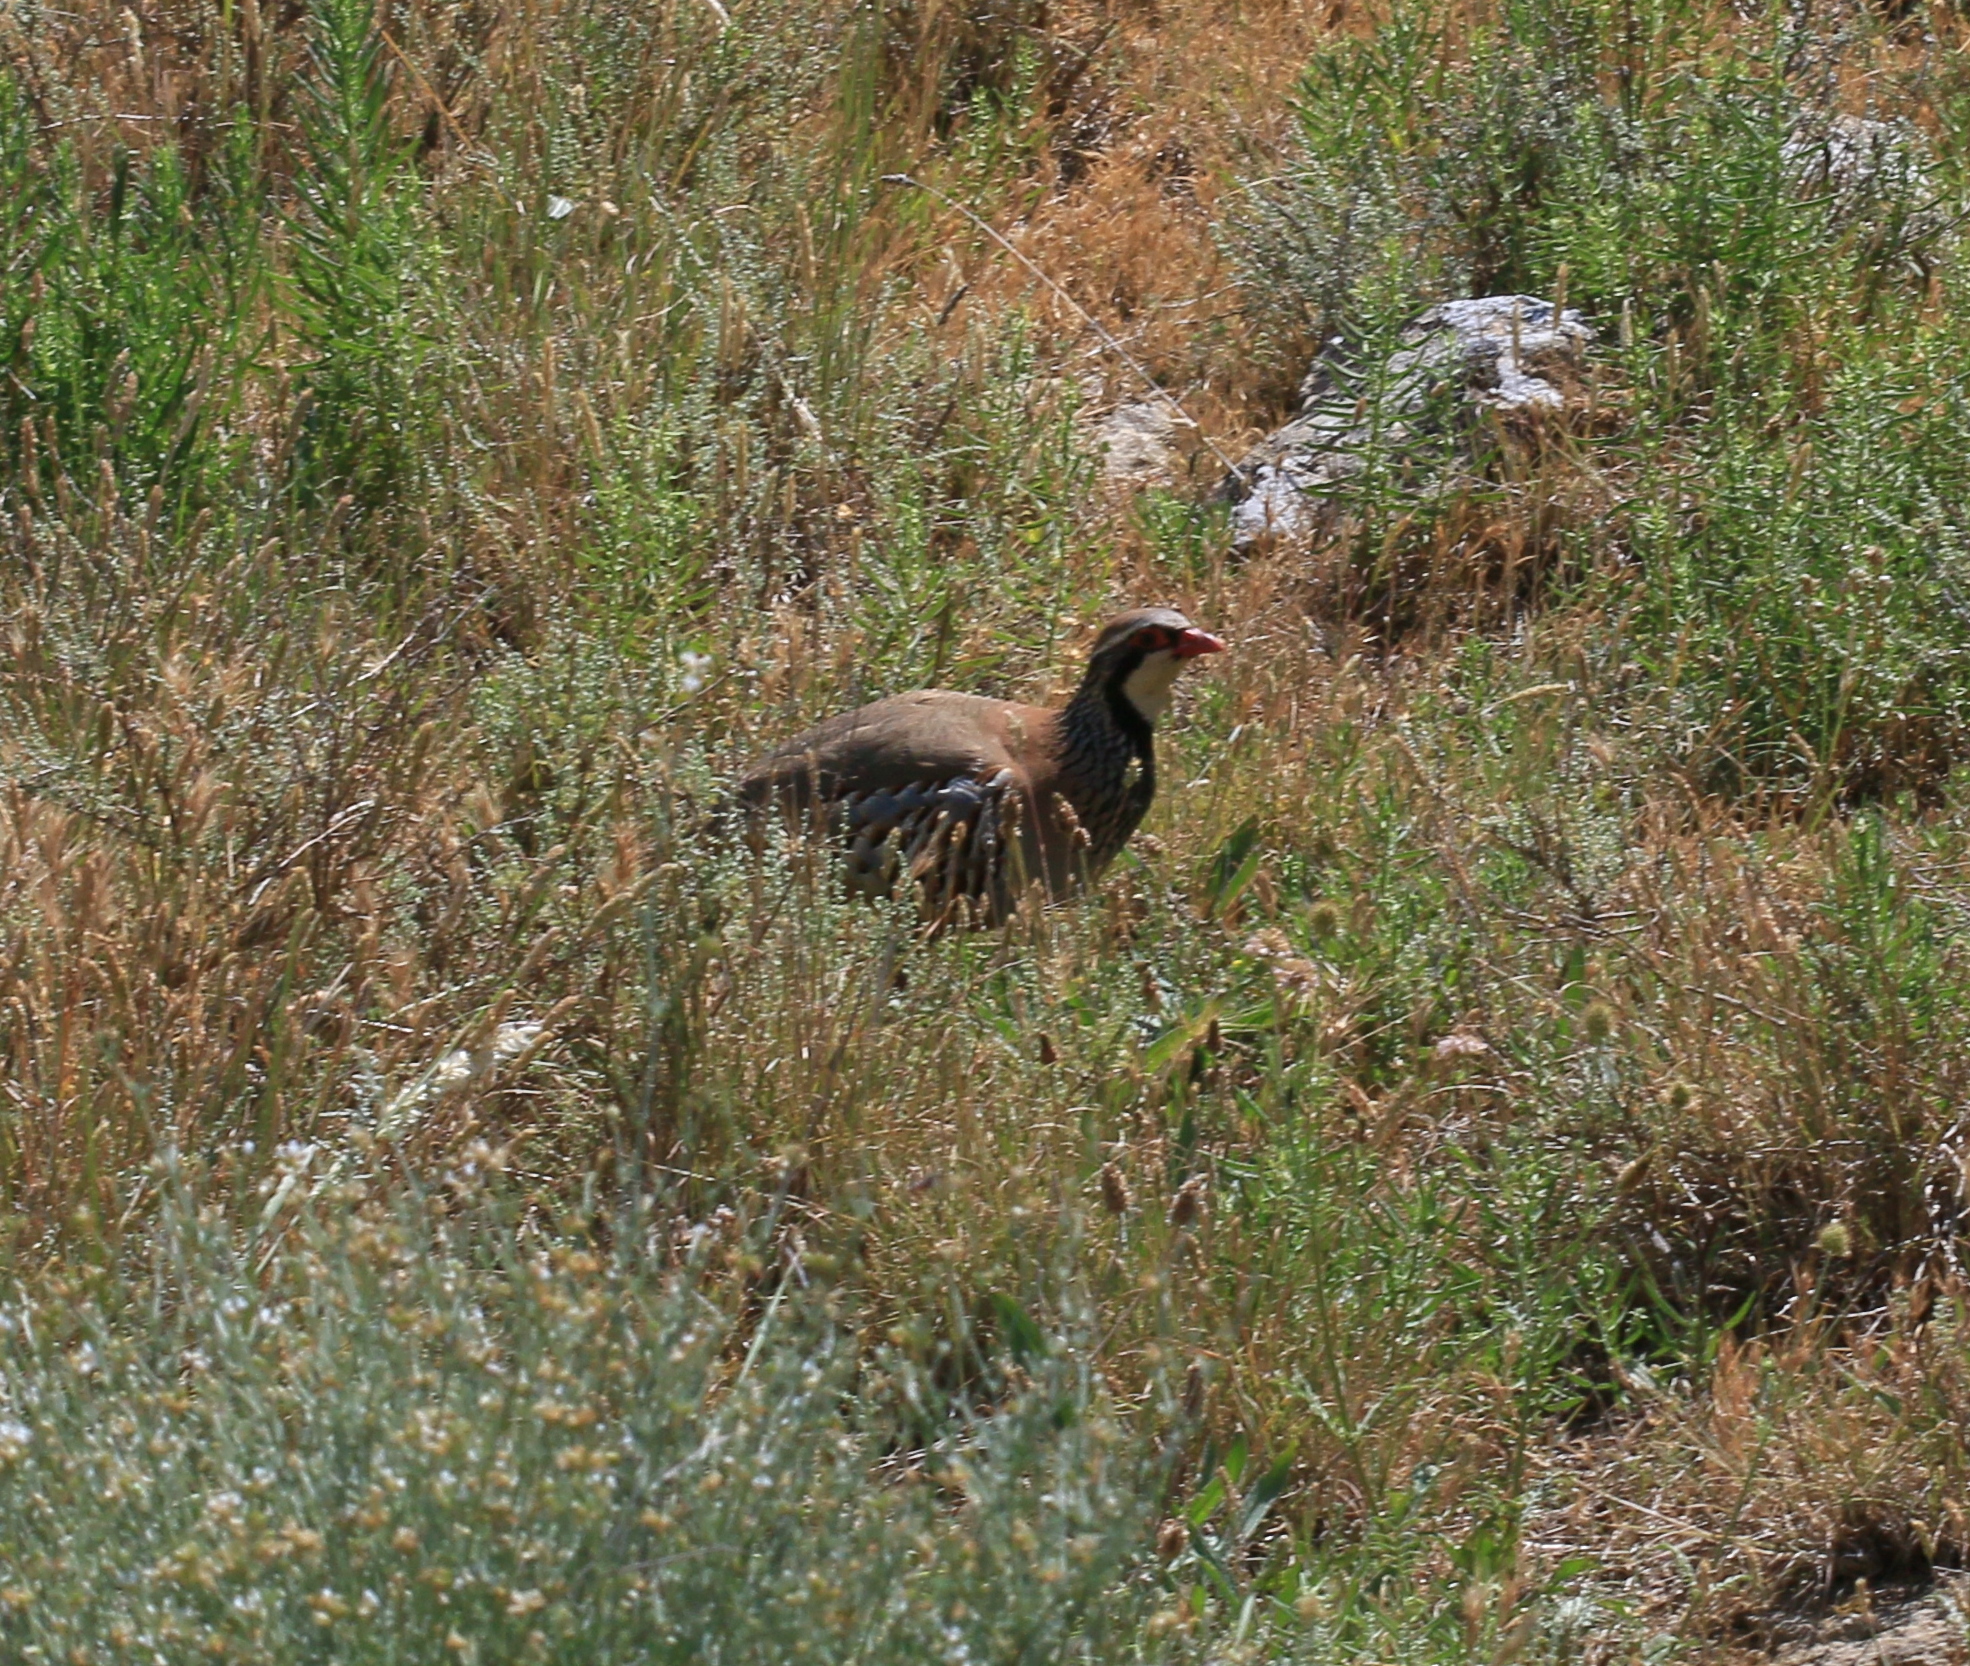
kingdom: Animalia
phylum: Chordata
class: Aves
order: Galliformes
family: Phasianidae
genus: Alectoris
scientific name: Alectoris rufa
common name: Red-legged partridge
